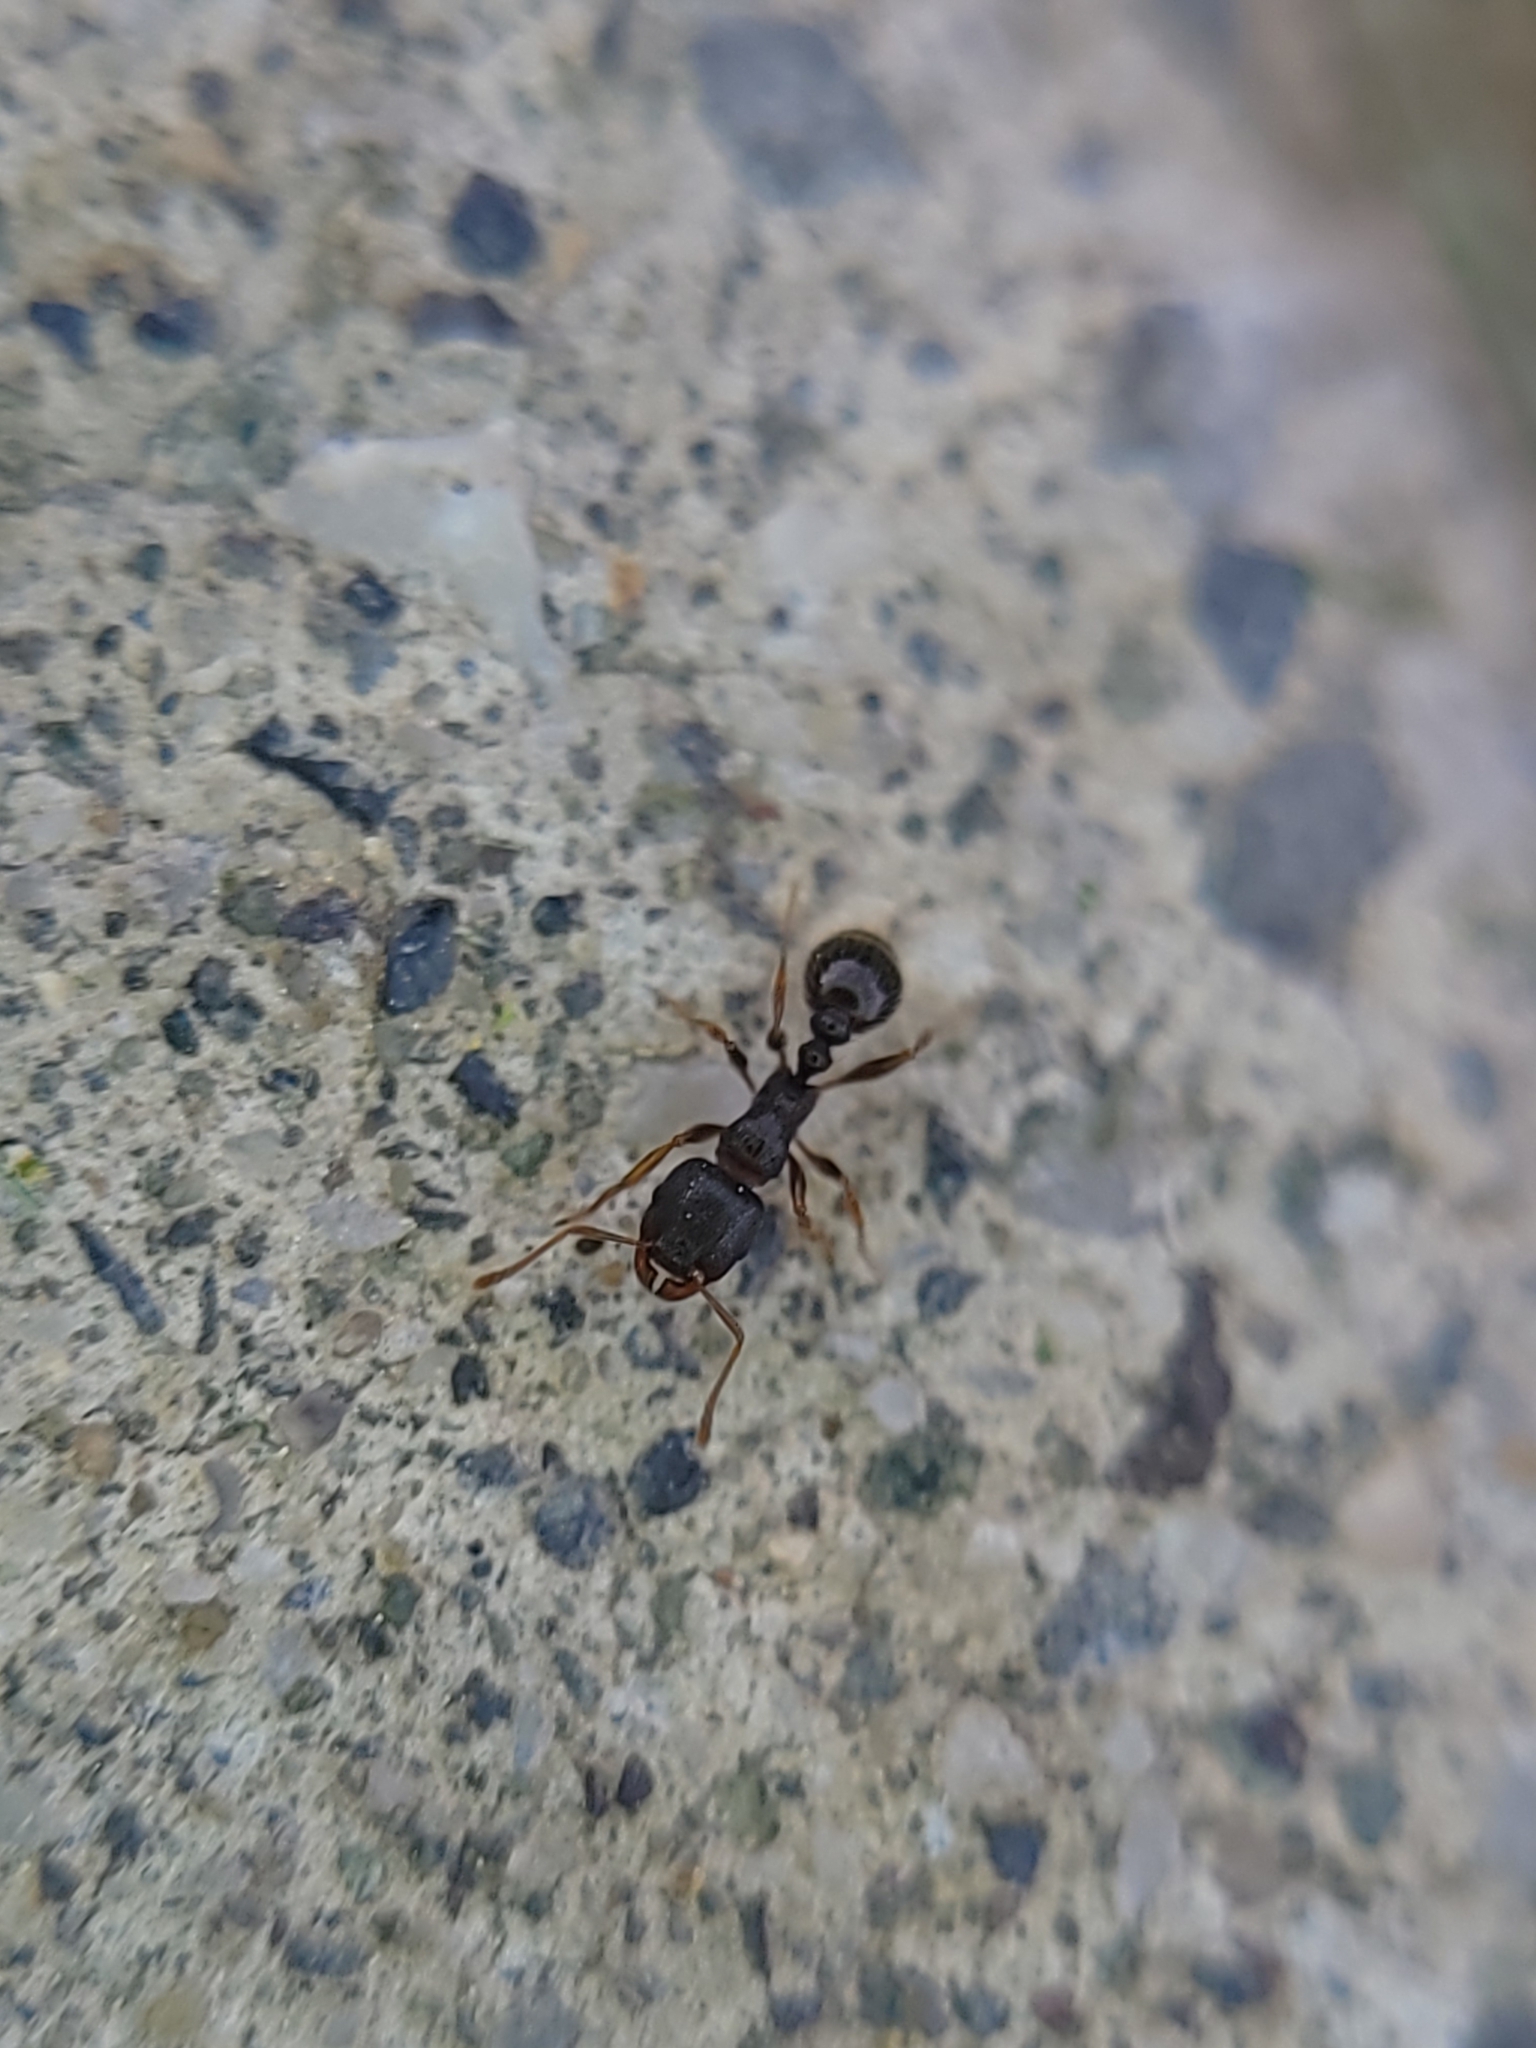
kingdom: Animalia
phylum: Arthropoda
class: Insecta
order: Hymenoptera
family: Formicidae
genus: Tetramorium
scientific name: Tetramorium immigrans
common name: Pavement ant
